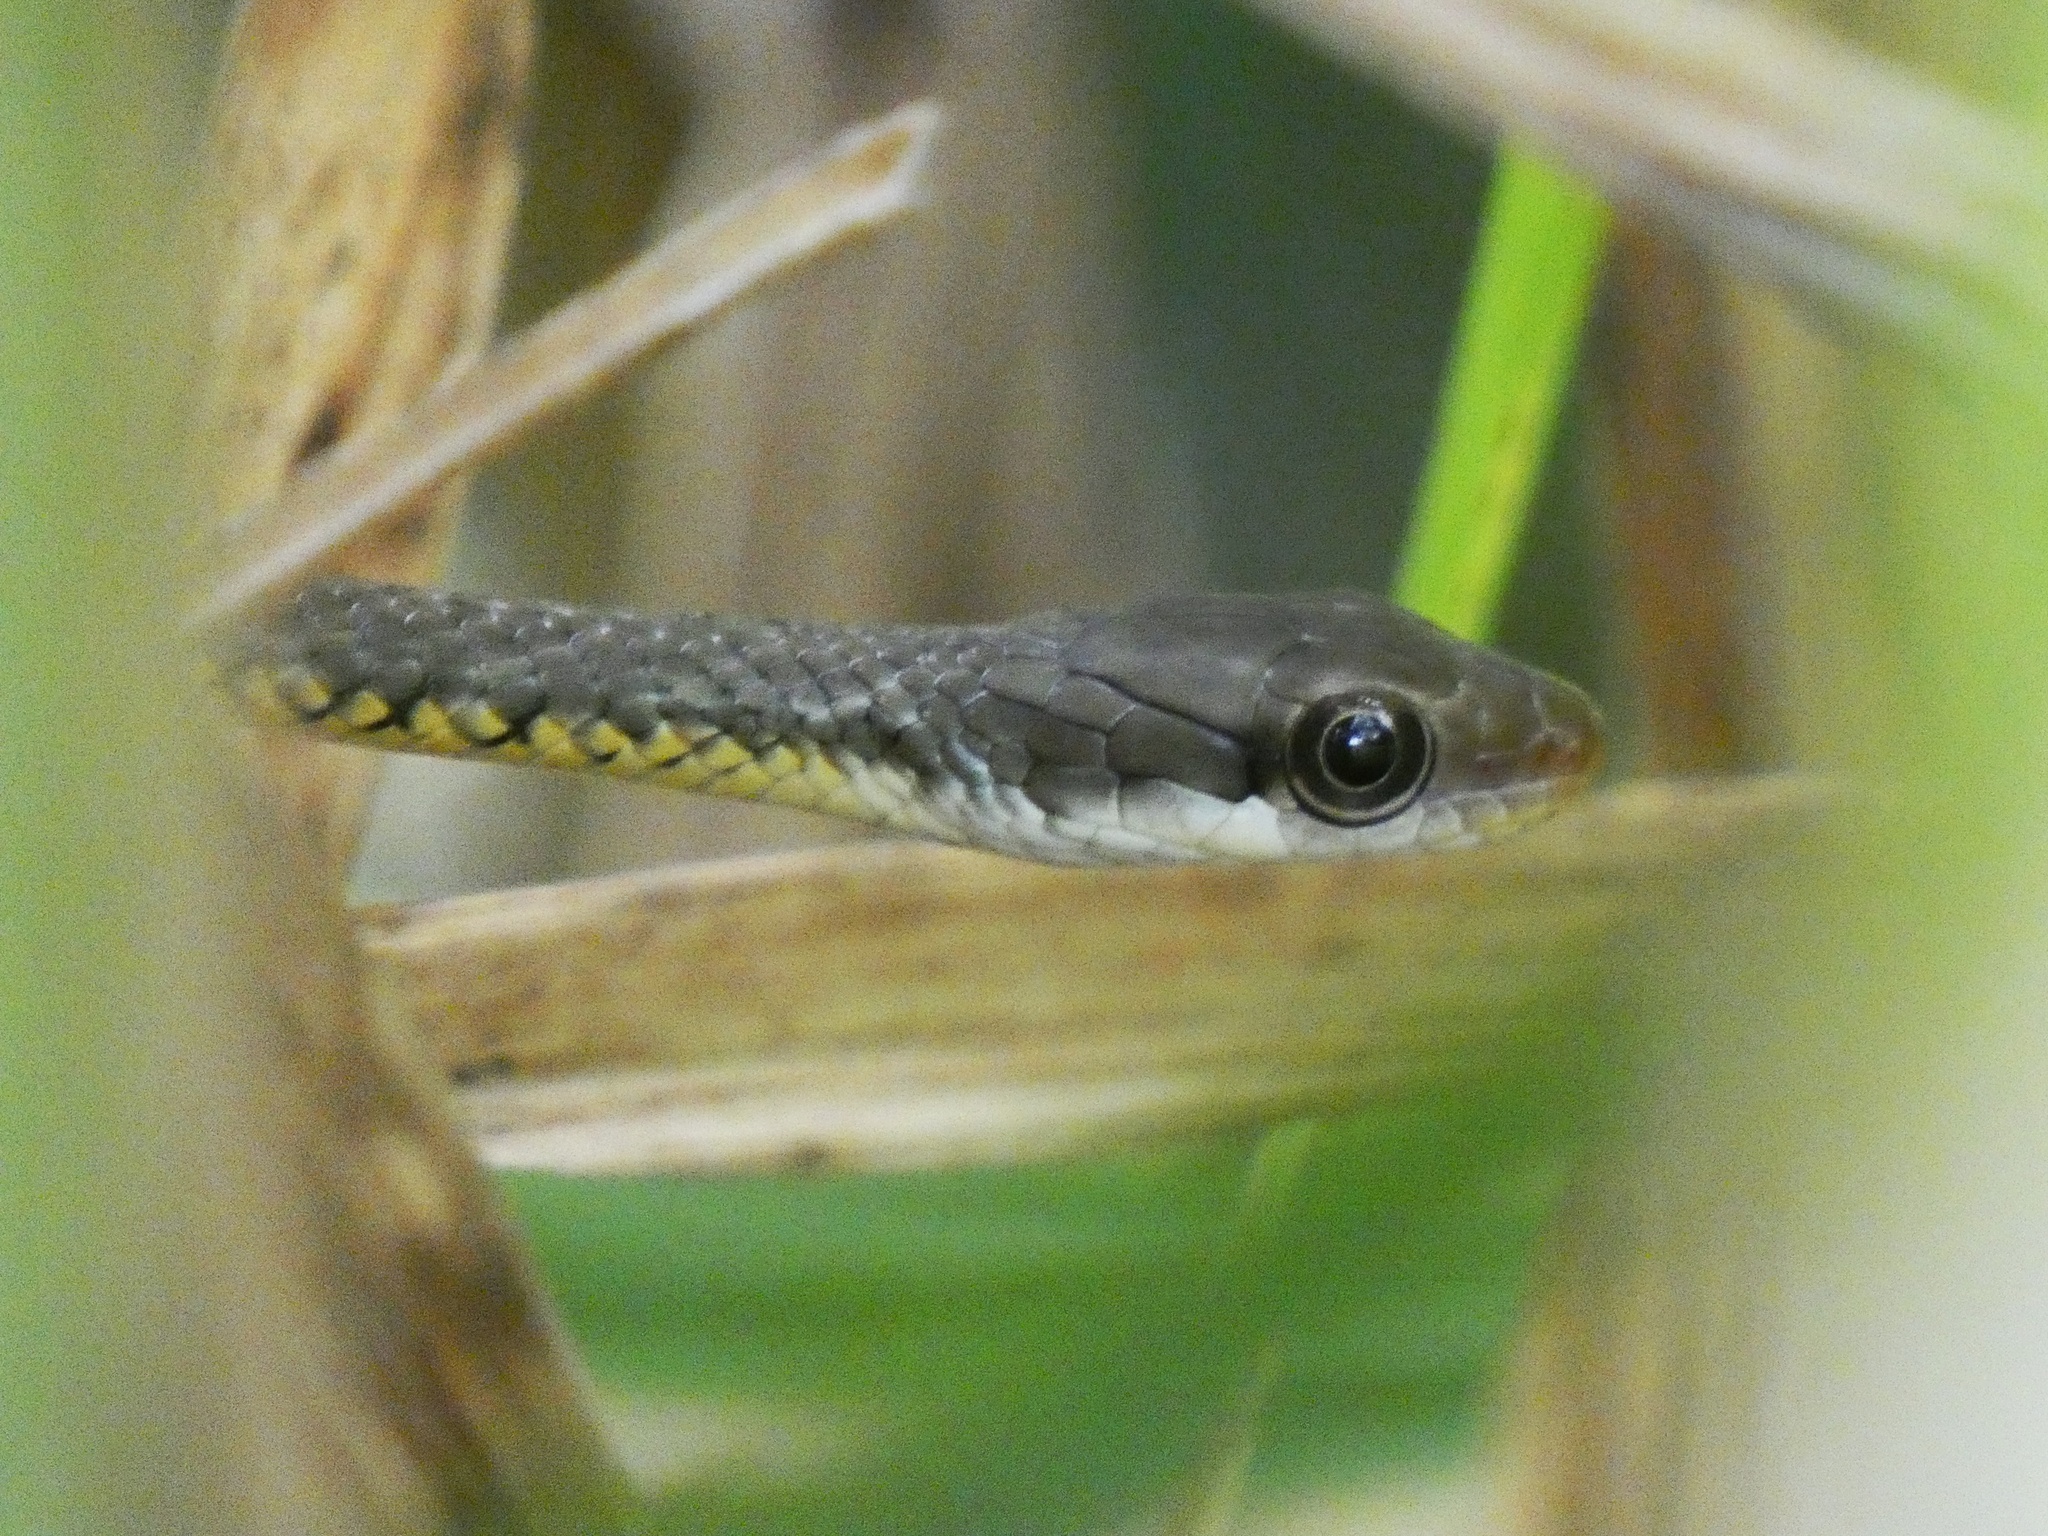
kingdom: Animalia
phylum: Chordata
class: Squamata
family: Colubridae
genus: Chironius
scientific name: Chironius flavopictus
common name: Sipo
